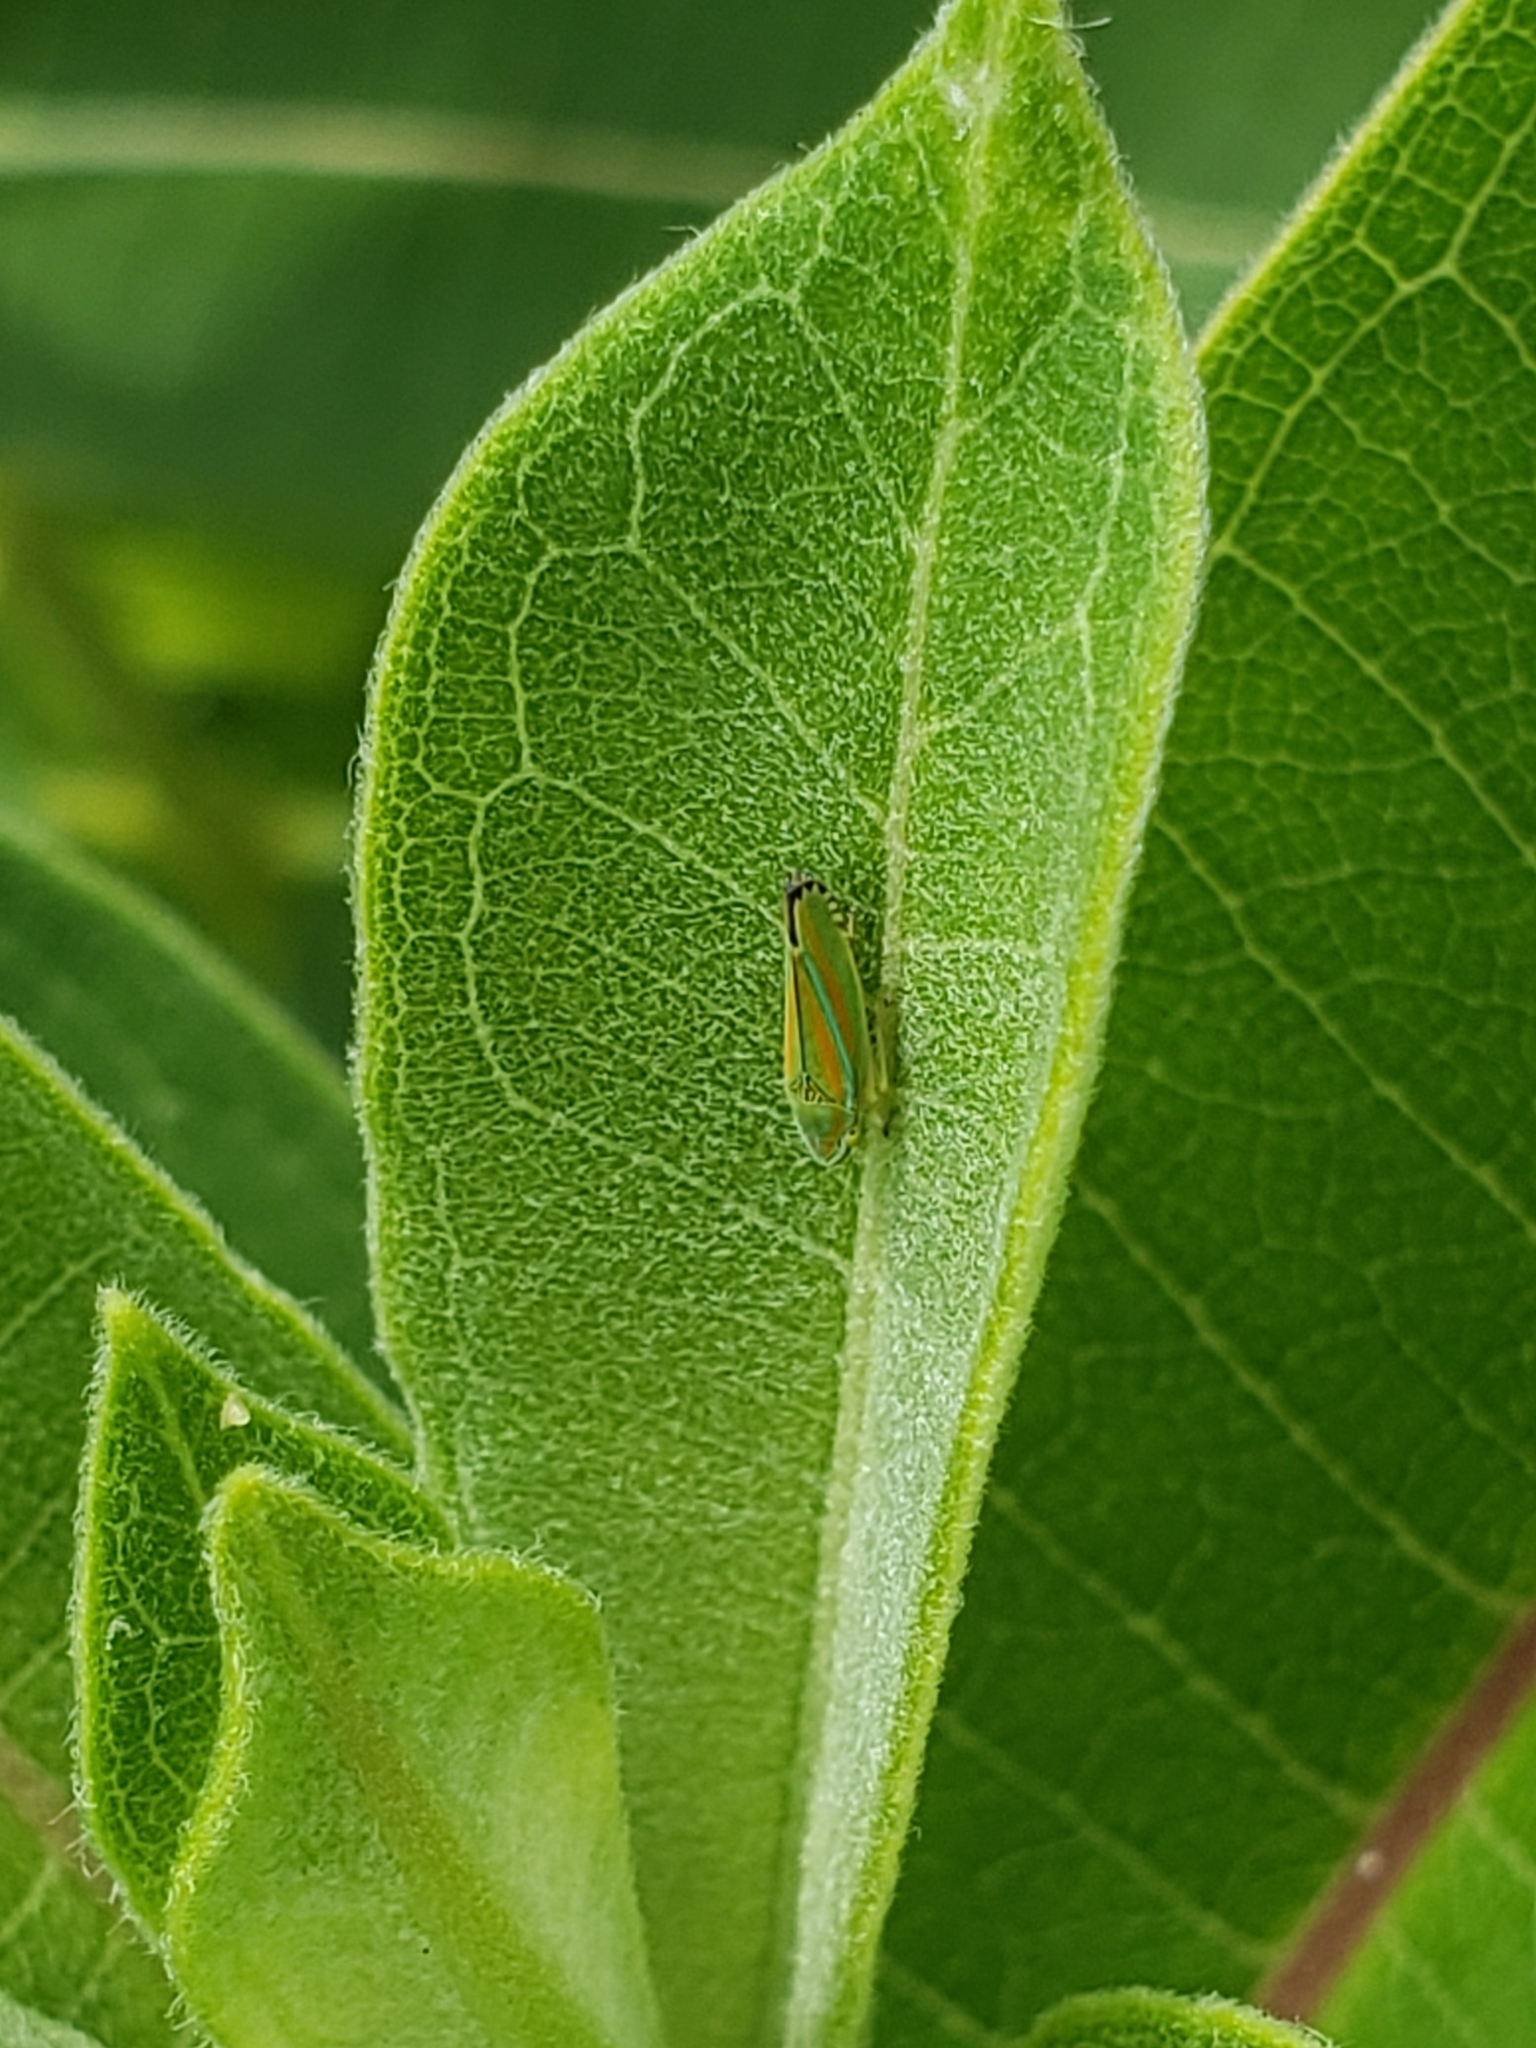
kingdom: Animalia
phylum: Arthropoda
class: Insecta
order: Hemiptera
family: Cicadellidae
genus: Graphocephala
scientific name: Graphocephala versuta
